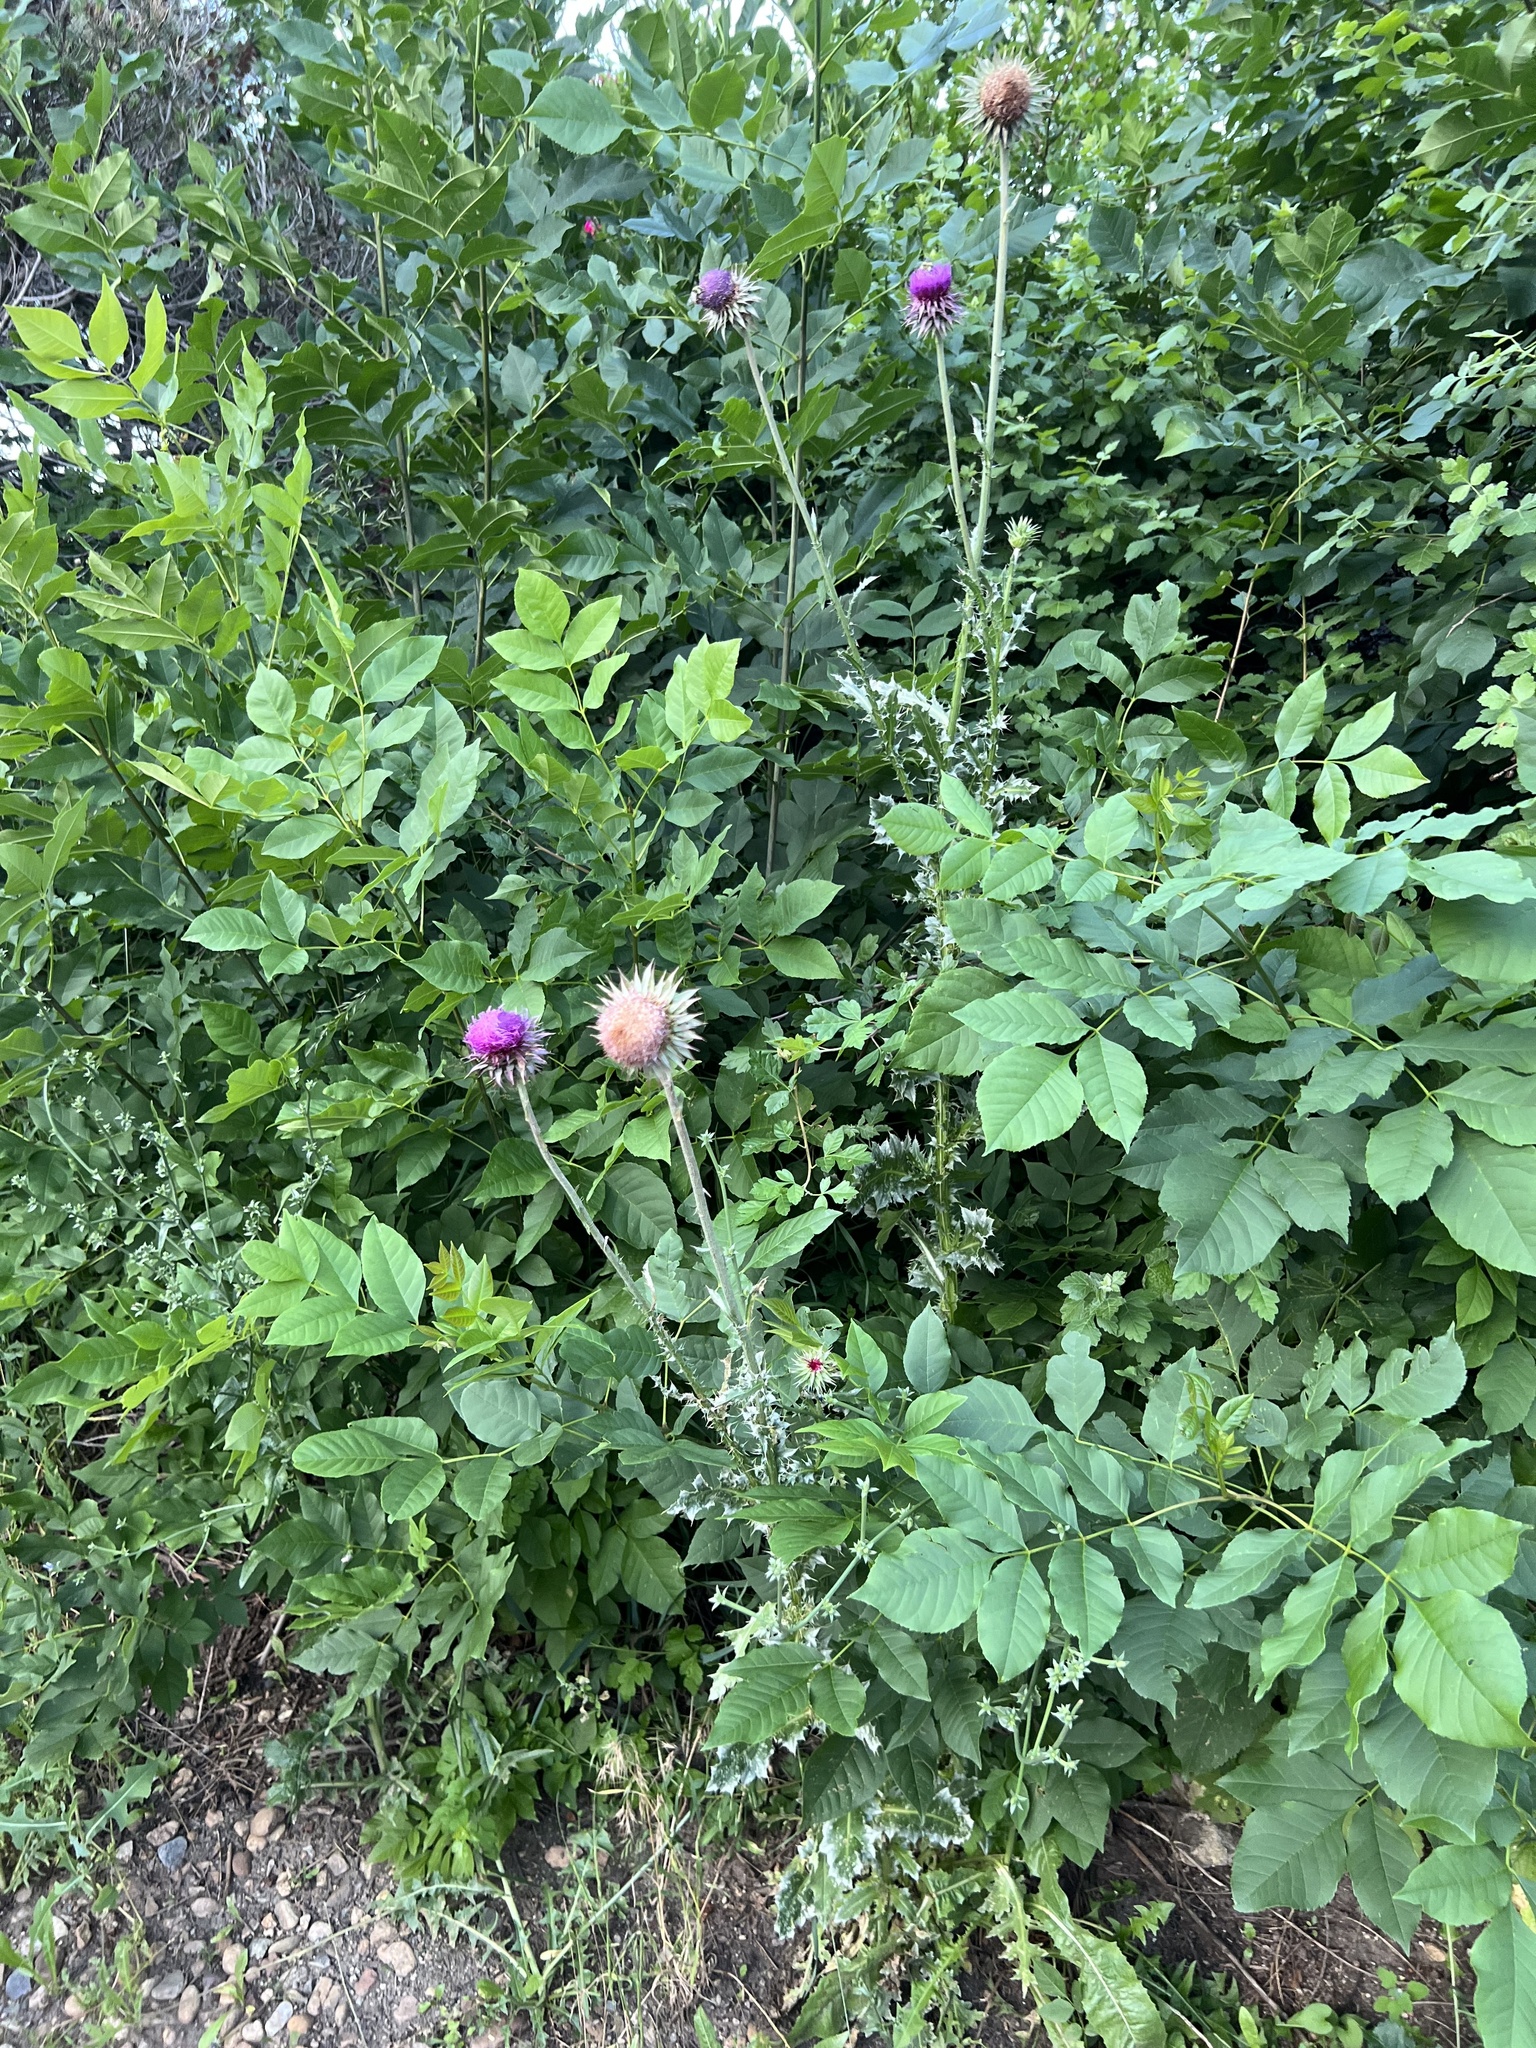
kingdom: Plantae
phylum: Tracheophyta
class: Magnoliopsida
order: Asterales
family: Asteraceae
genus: Carduus
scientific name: Carduus nutans
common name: Musk thistle
